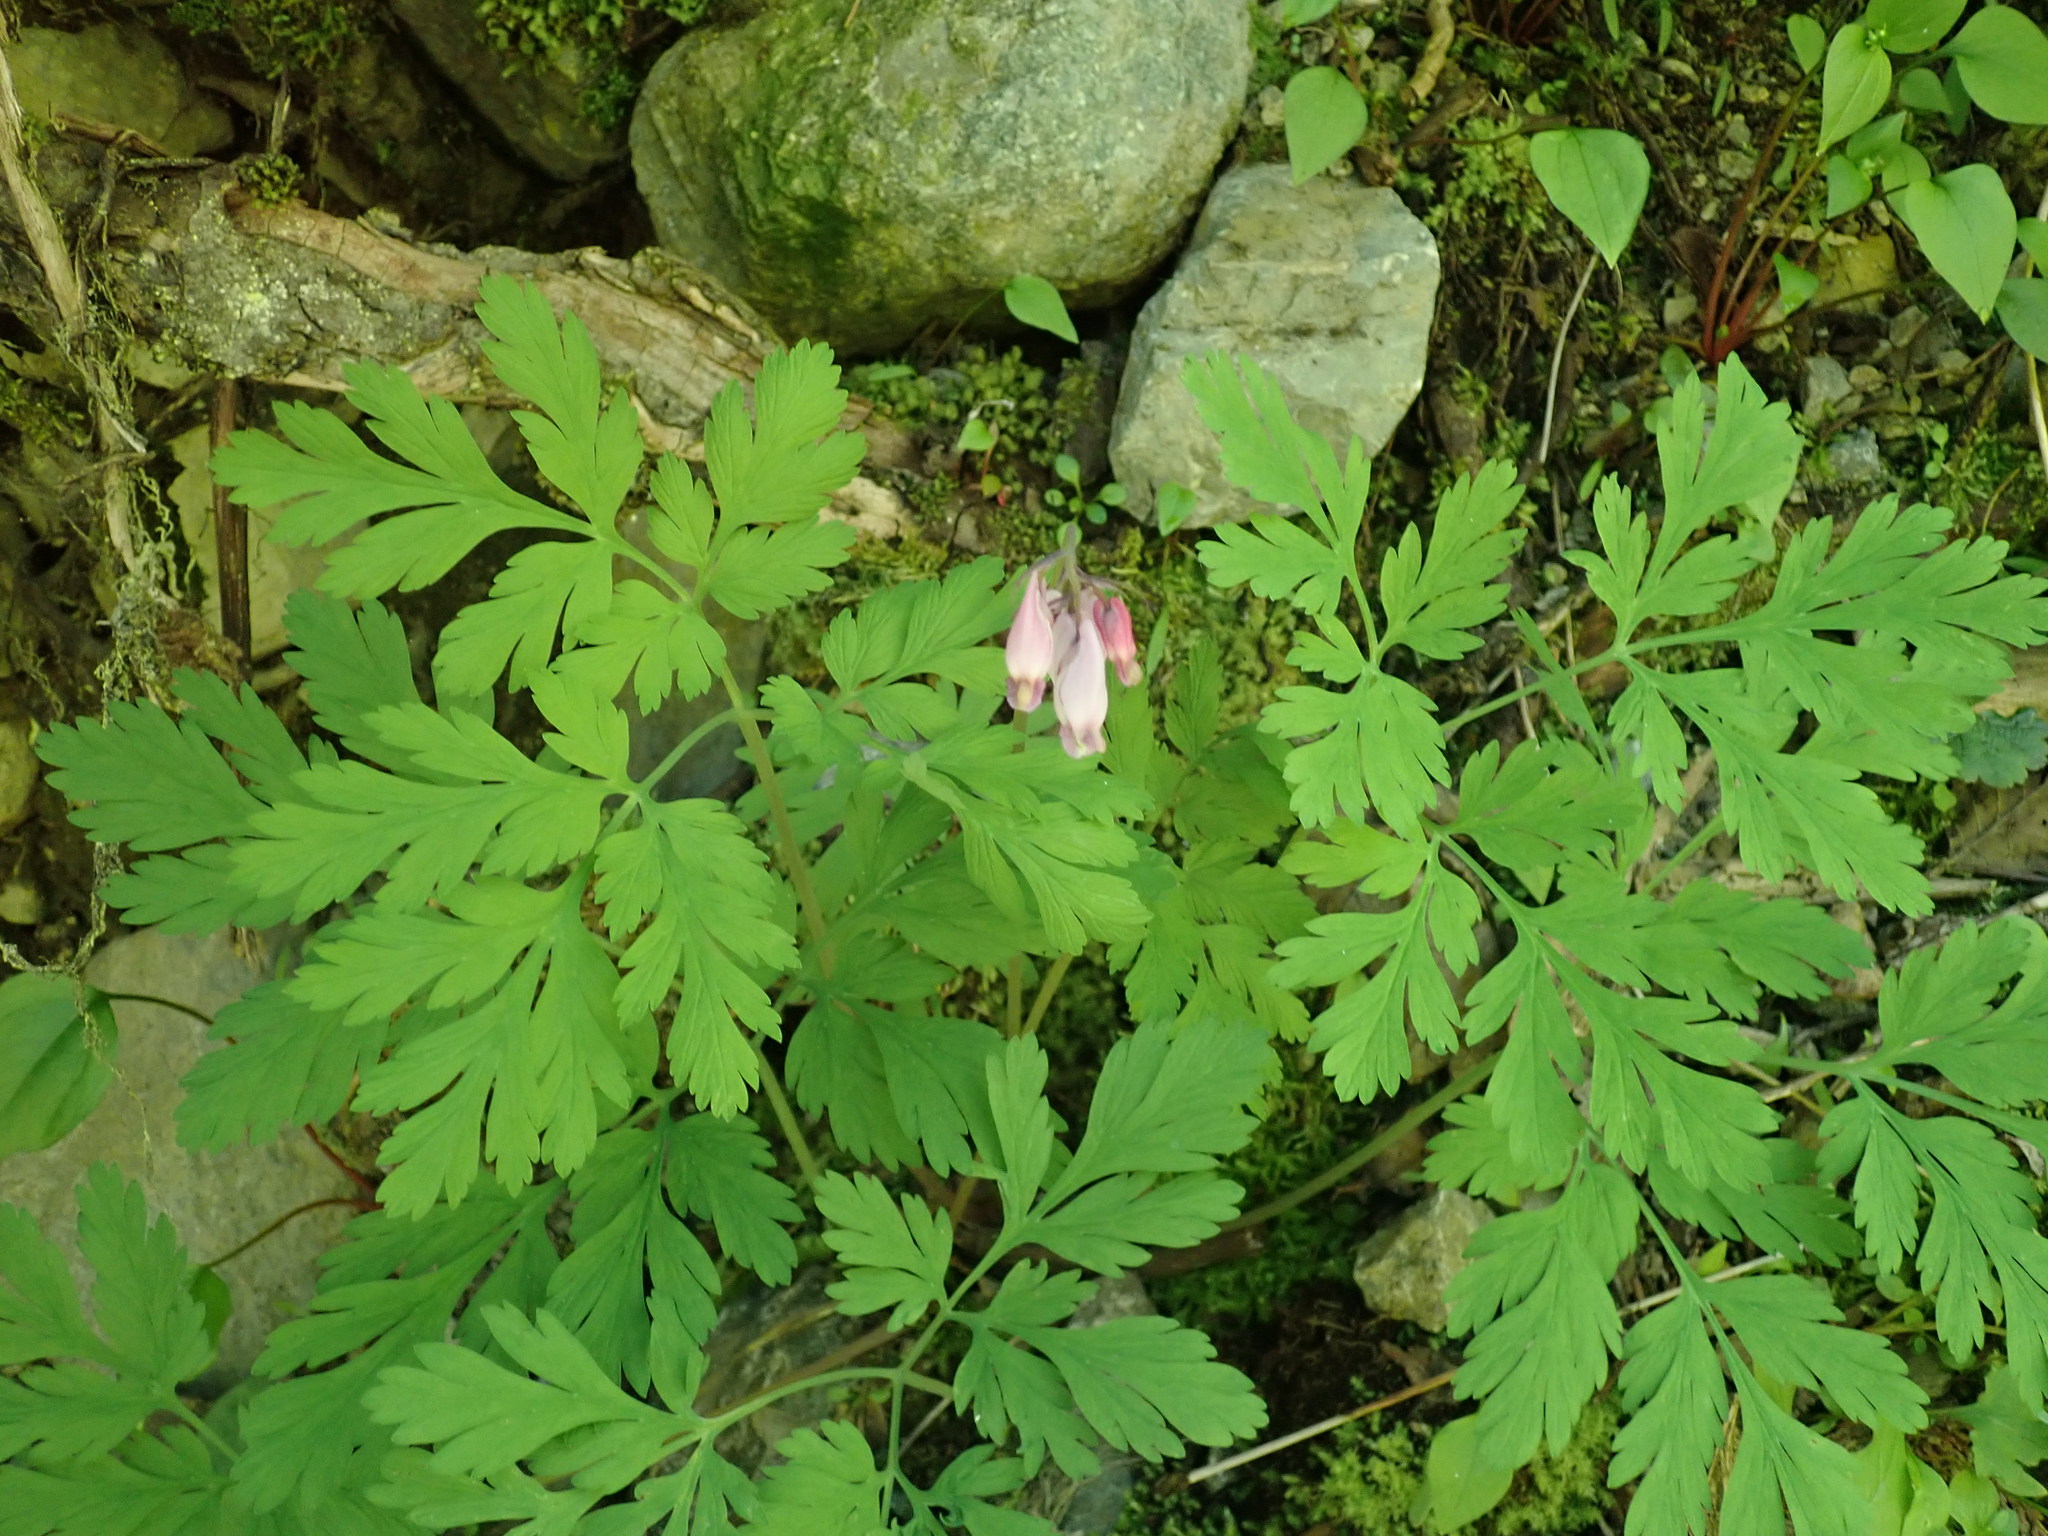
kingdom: Plantae
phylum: Tracheophyta
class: Magnoliopsida
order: Ranunculales
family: Papaveraceae
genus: Dicentra
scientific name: Dicentra formosa
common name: Bleeding-heart
